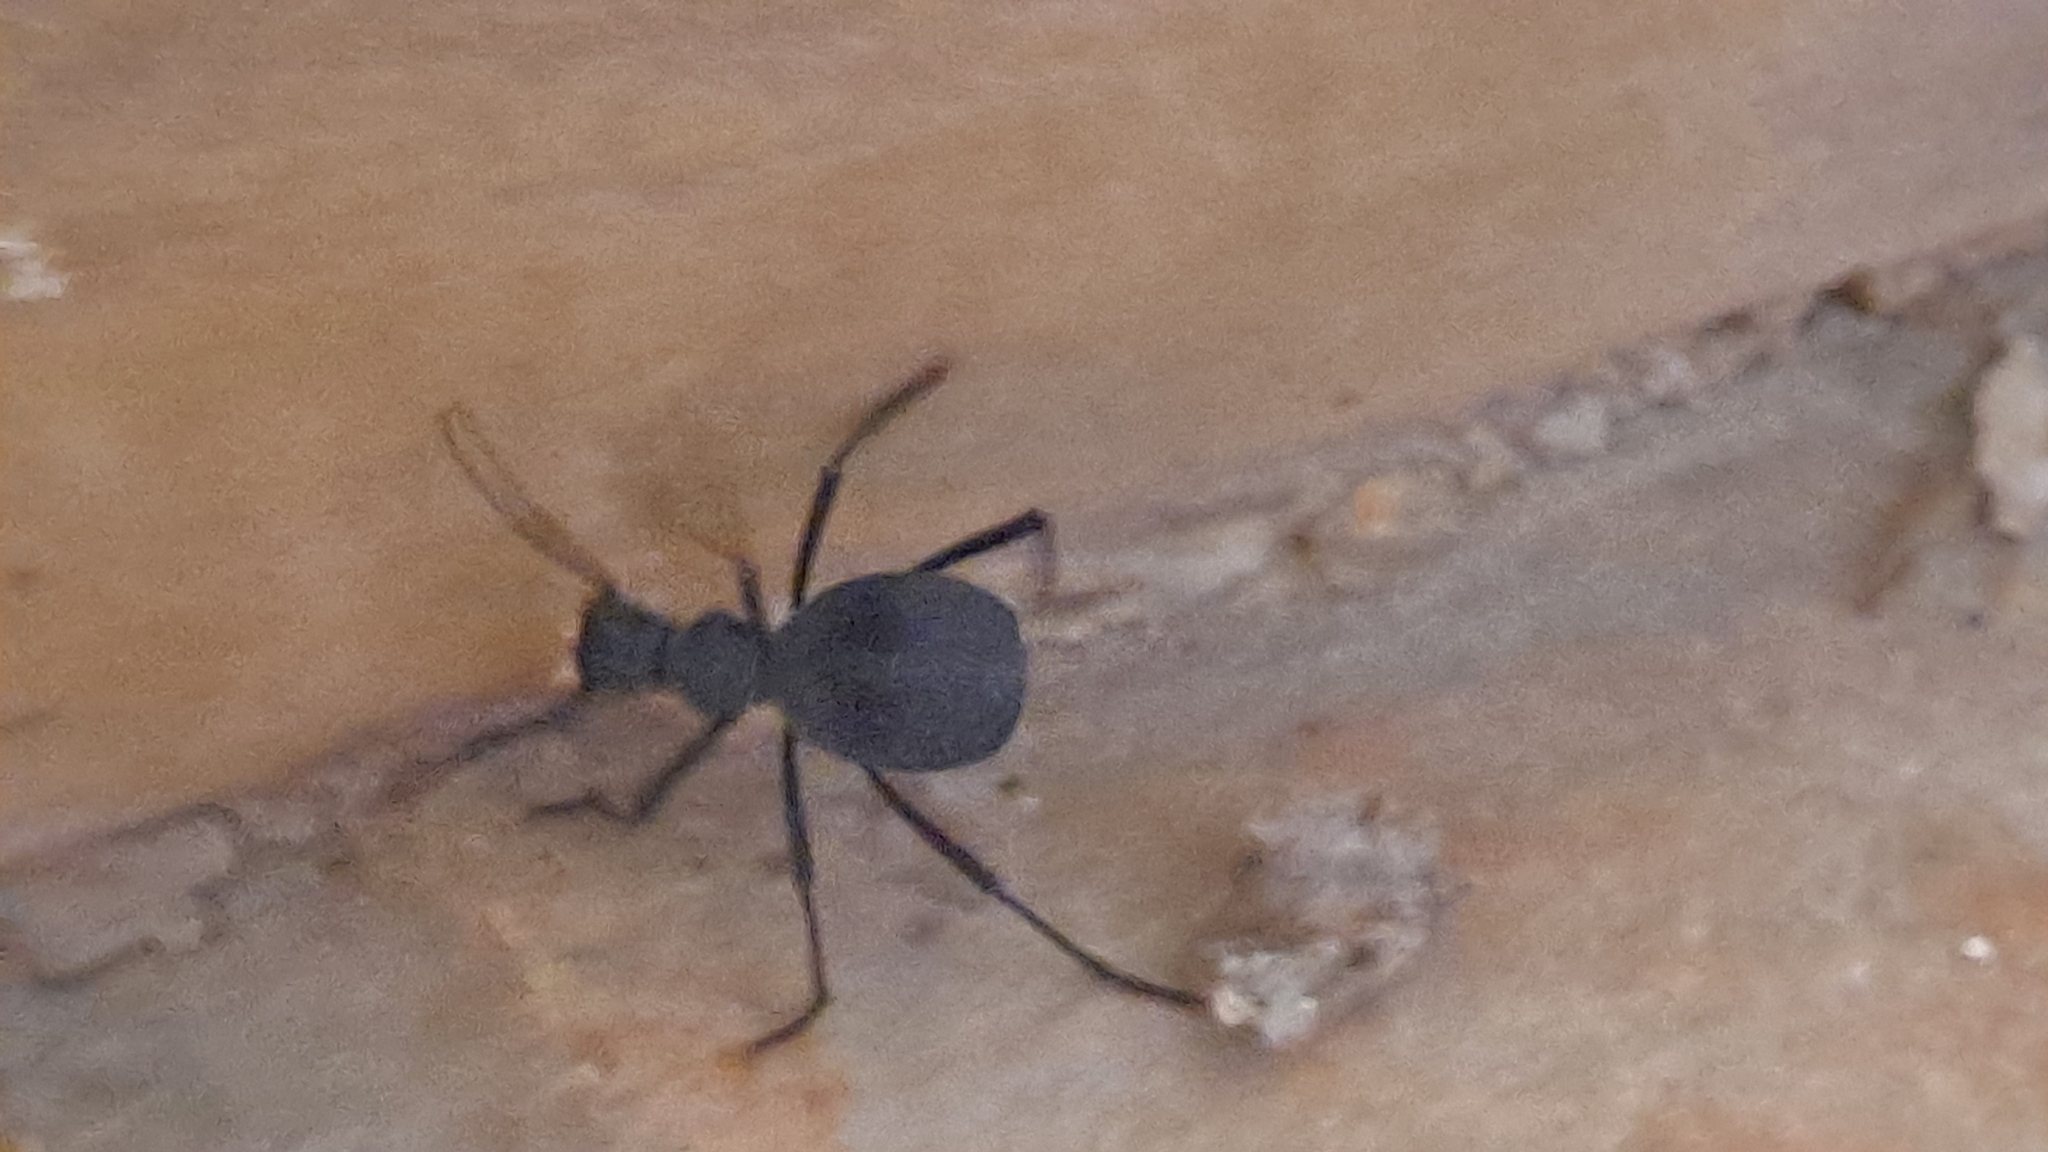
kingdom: Animalia
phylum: Arthropoda
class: Insecta
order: Coleoptera
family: Tenebrionidae
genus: Leptoderis
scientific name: Leptoderis solieri
